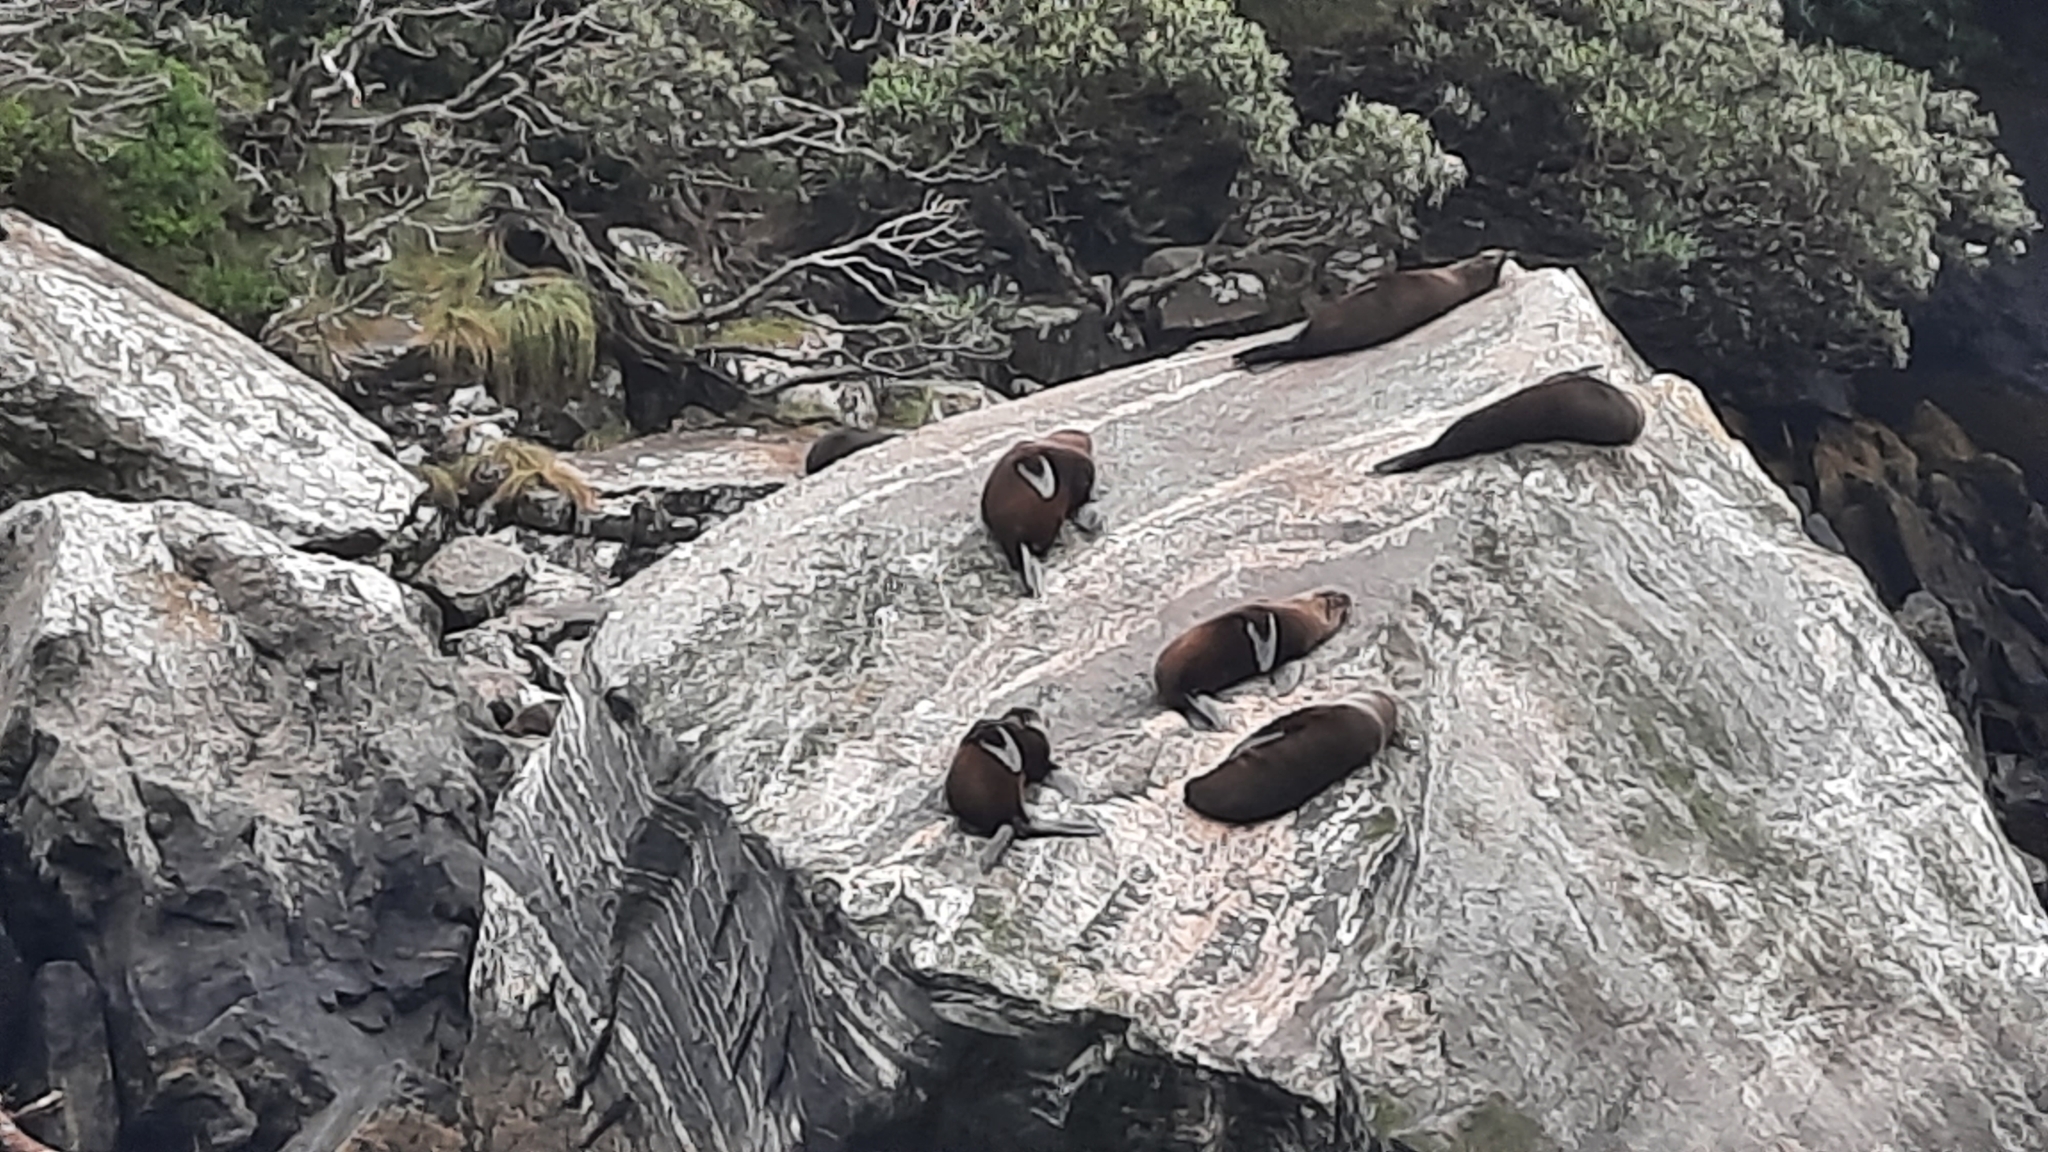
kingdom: Animalia
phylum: Chordata
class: Mammalia
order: Carnivora
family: Otariidae
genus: Arctocephalus
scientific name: Arctocephalus forsteri
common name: New zealand fur seal
